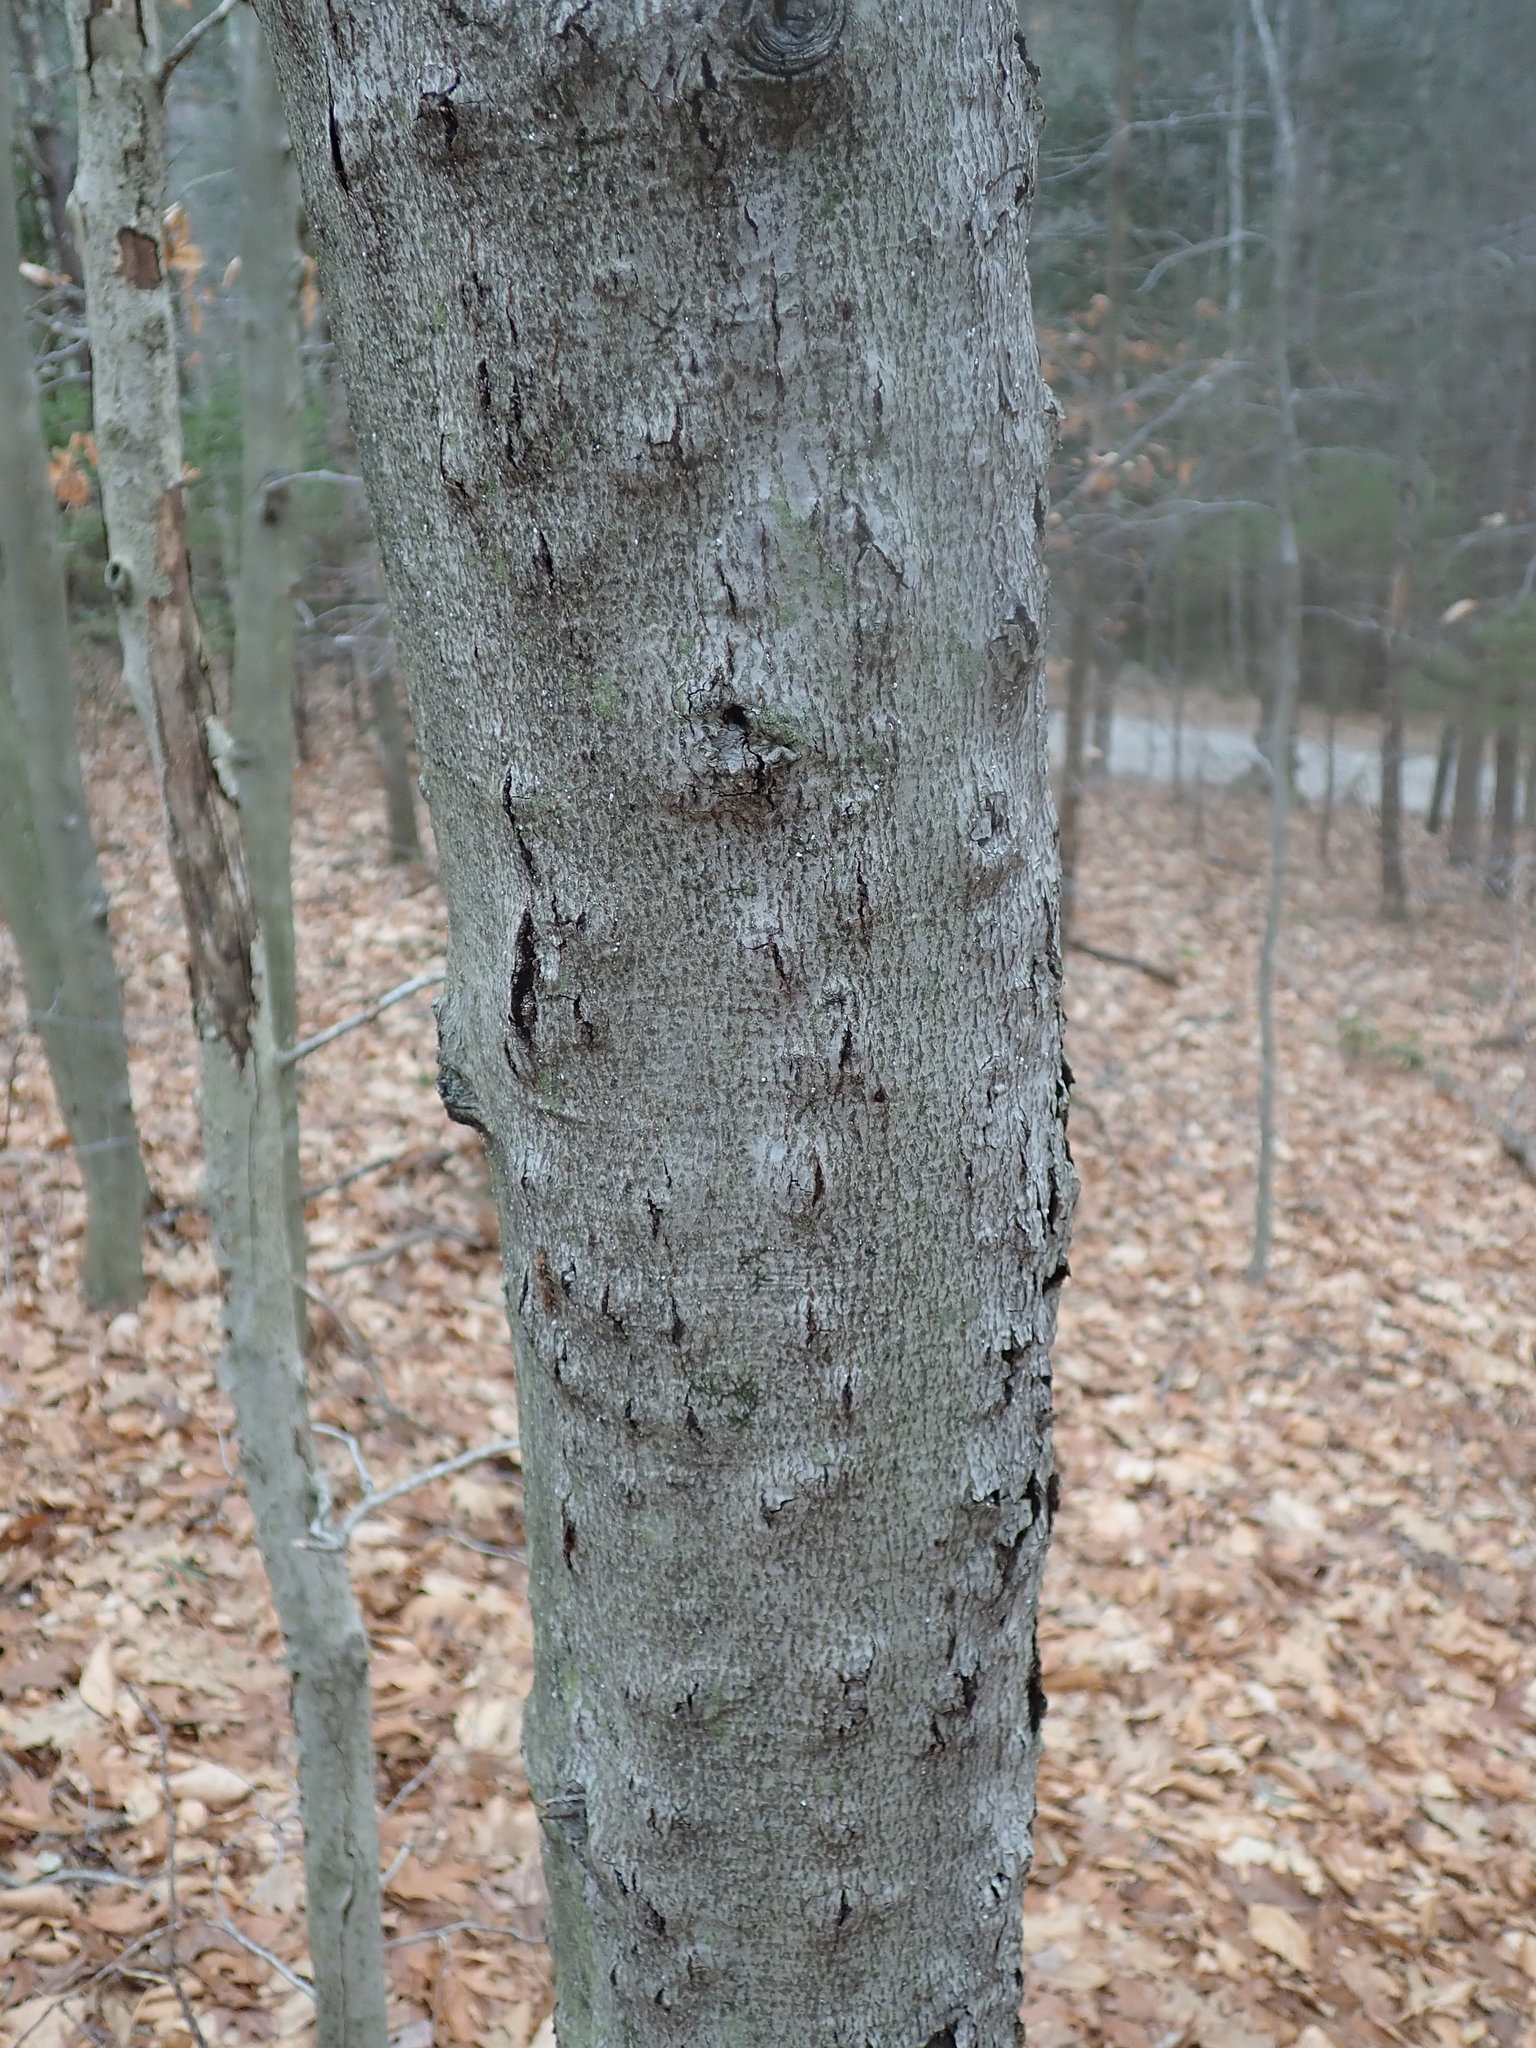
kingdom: Fungi
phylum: Ascomycota
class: Sordariomycetes
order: Hypocreales
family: Nectriaceae
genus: Neonectria
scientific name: Neonectria faginata
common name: Beech bark canker
